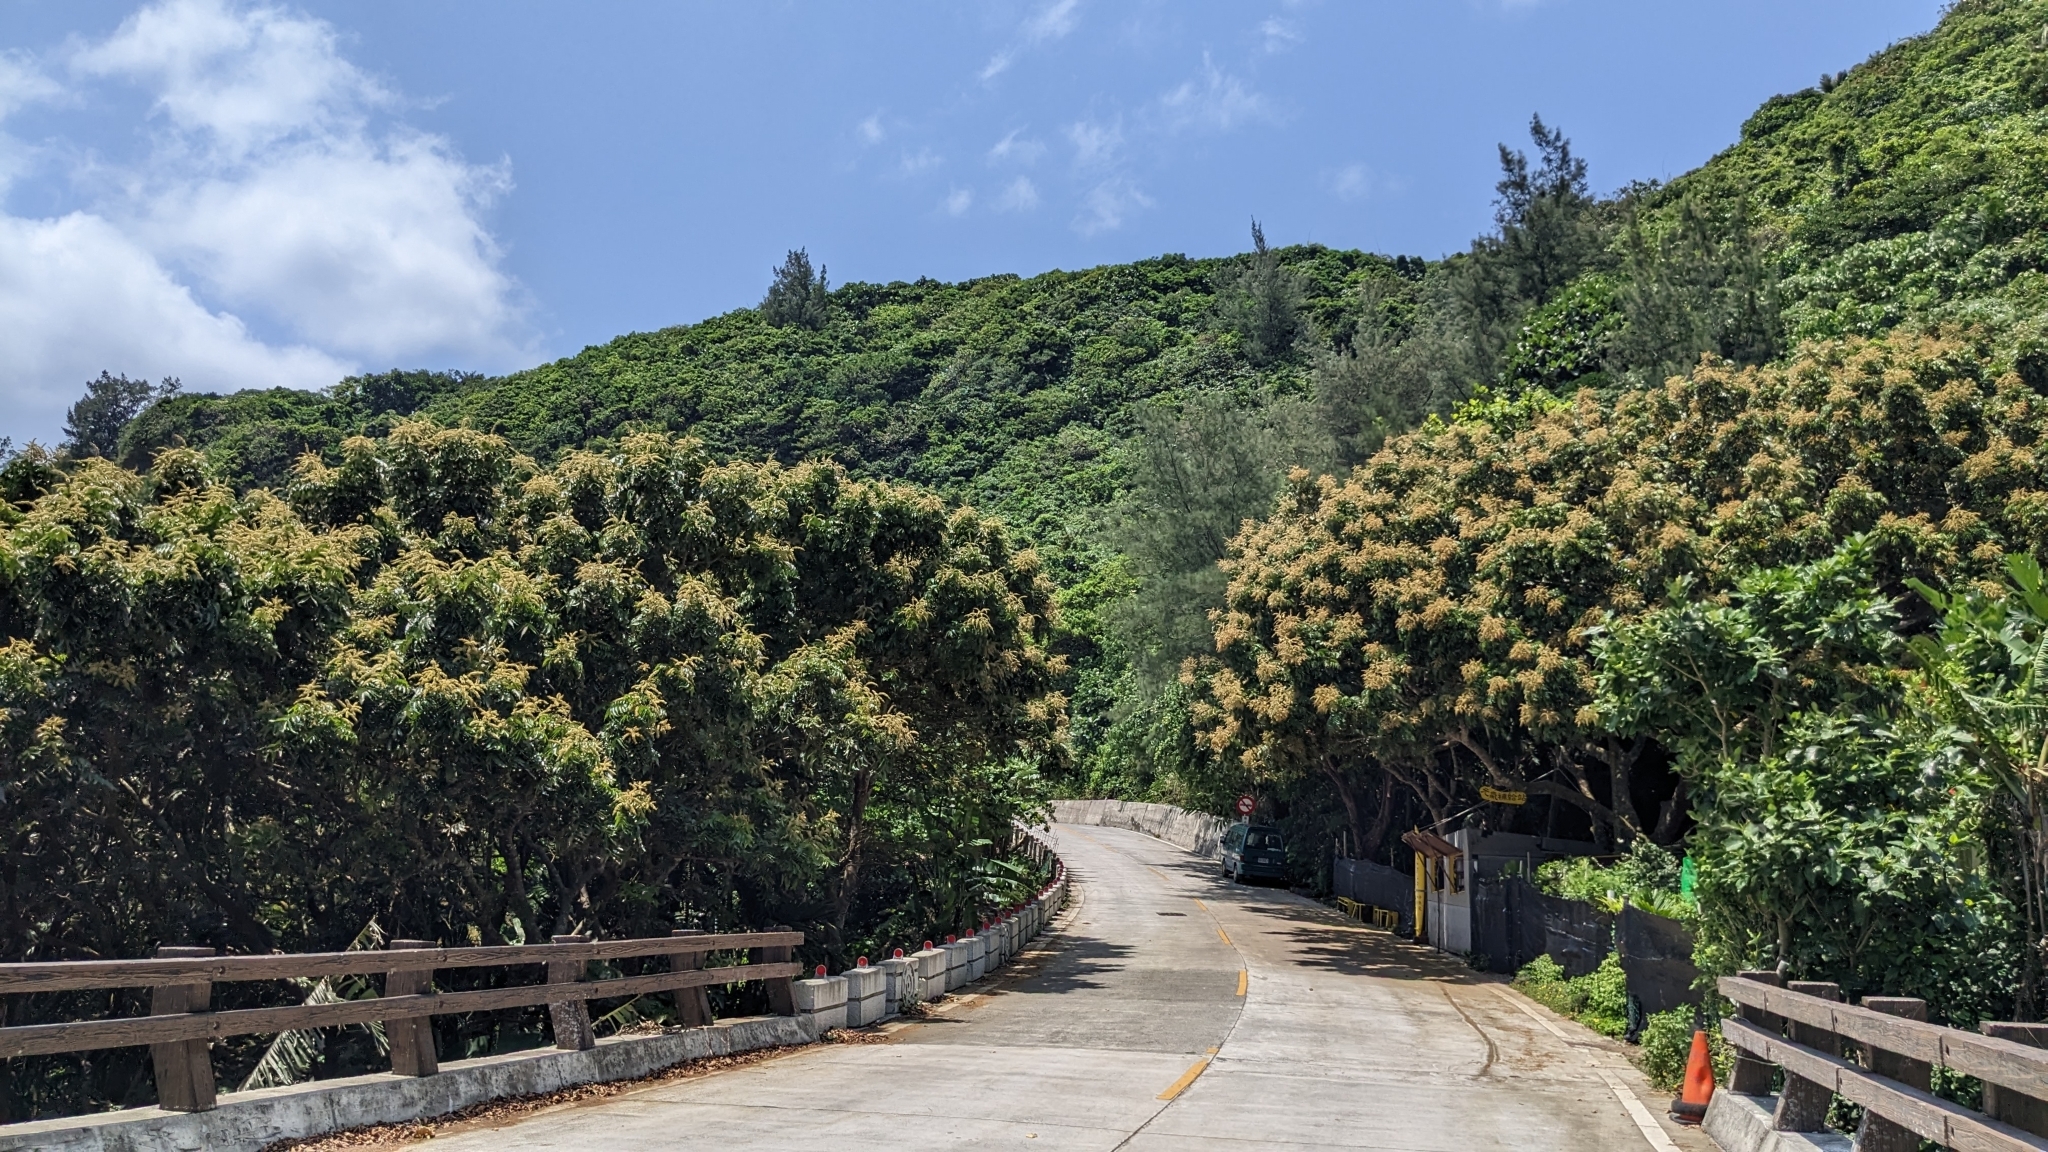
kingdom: Plantae
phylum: Tracheophyta
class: Magnoliopsida
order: Sapindales
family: Sapindaceae
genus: Pometia
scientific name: Pometia pinnata
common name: Oceanic lychee
